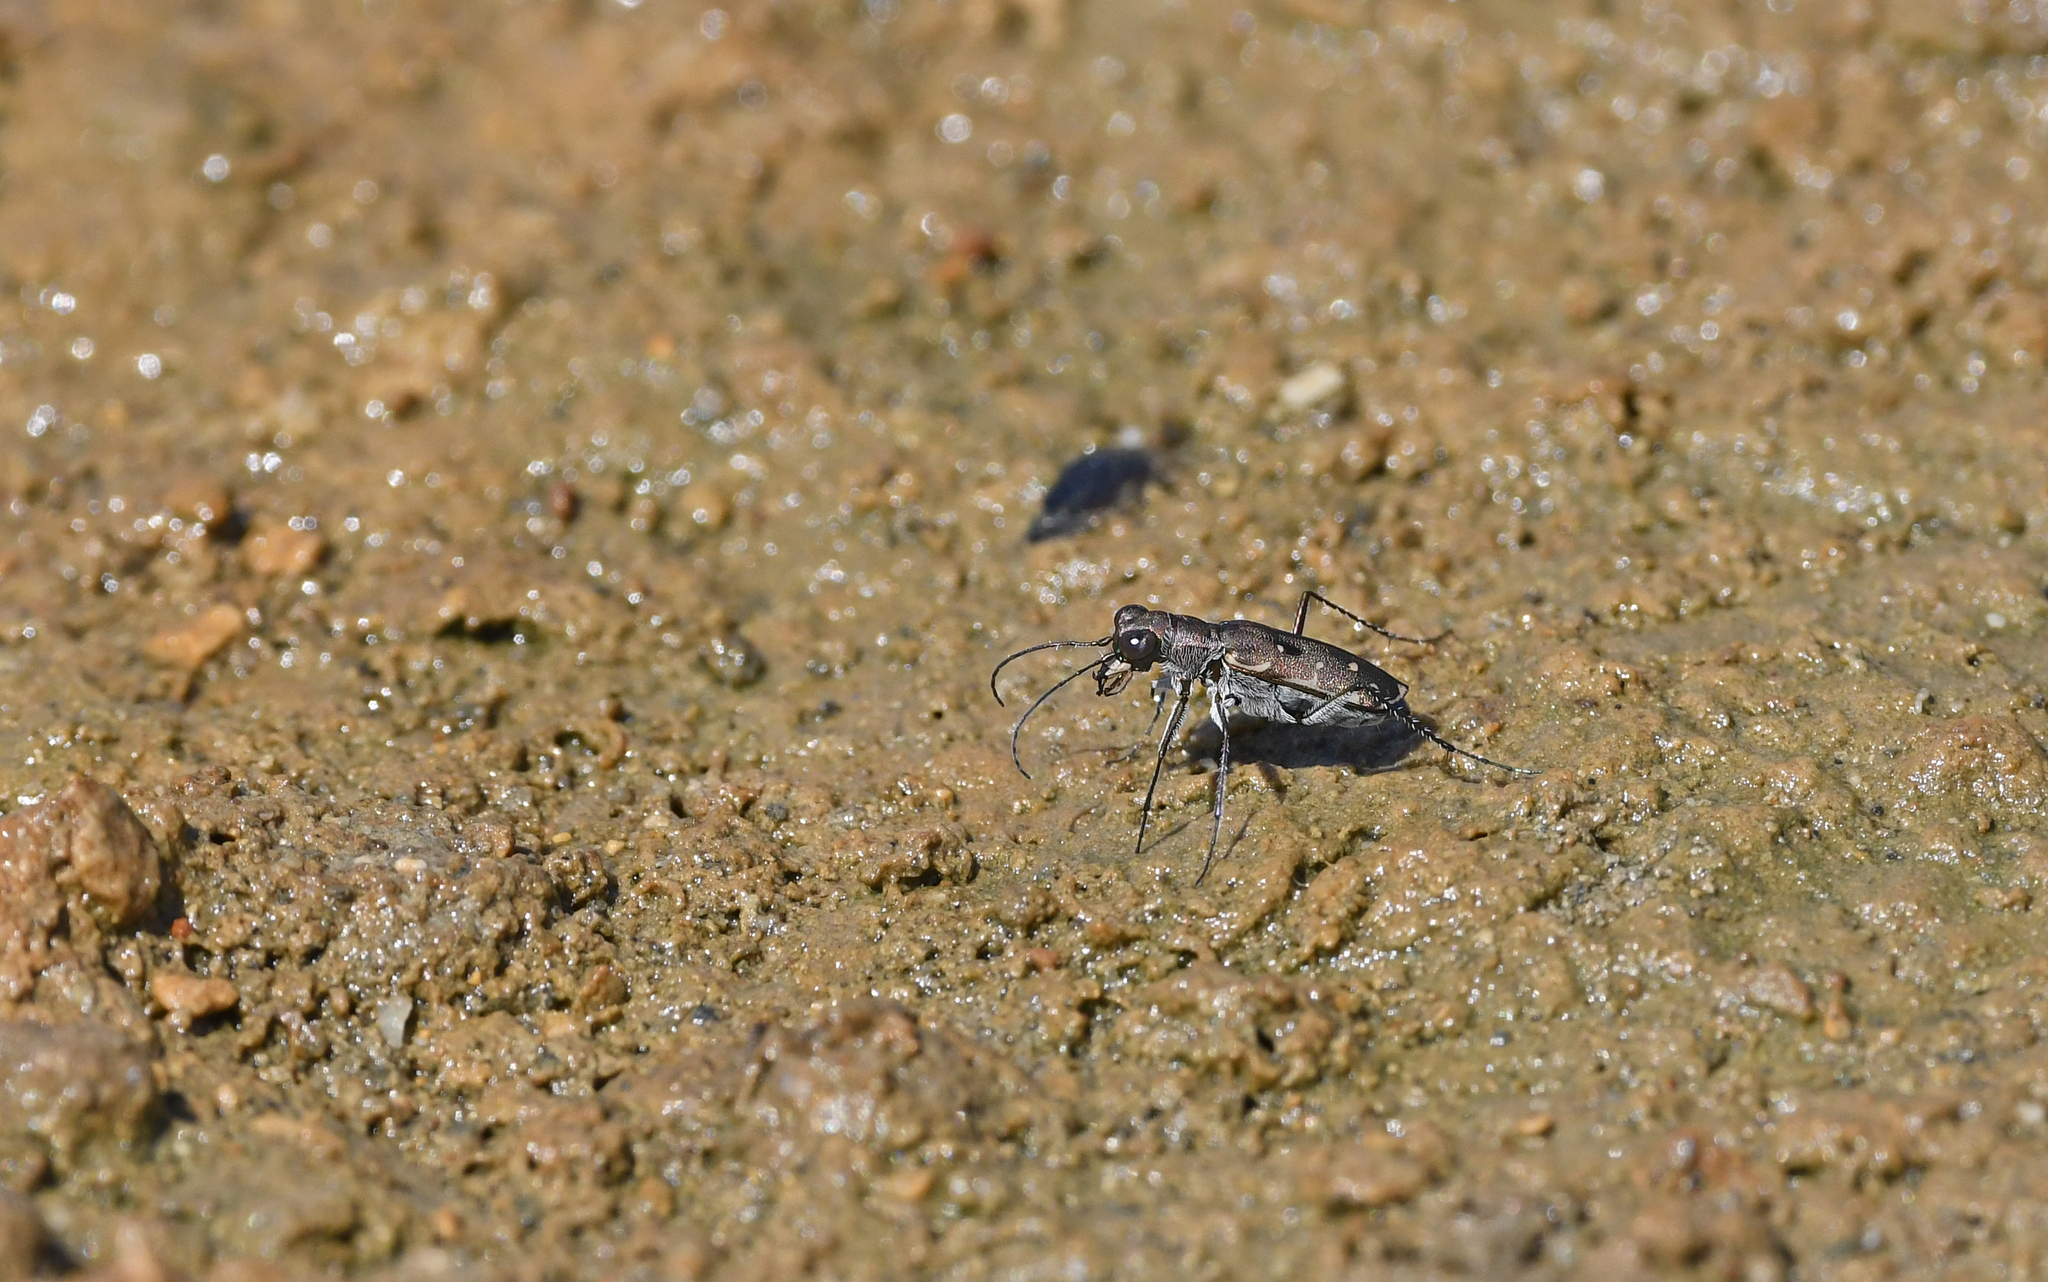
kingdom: Animalia
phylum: Arthropoda
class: Insecta
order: Coleoptera
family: Carabidae
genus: Cicindela
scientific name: Cicindela littoralis
